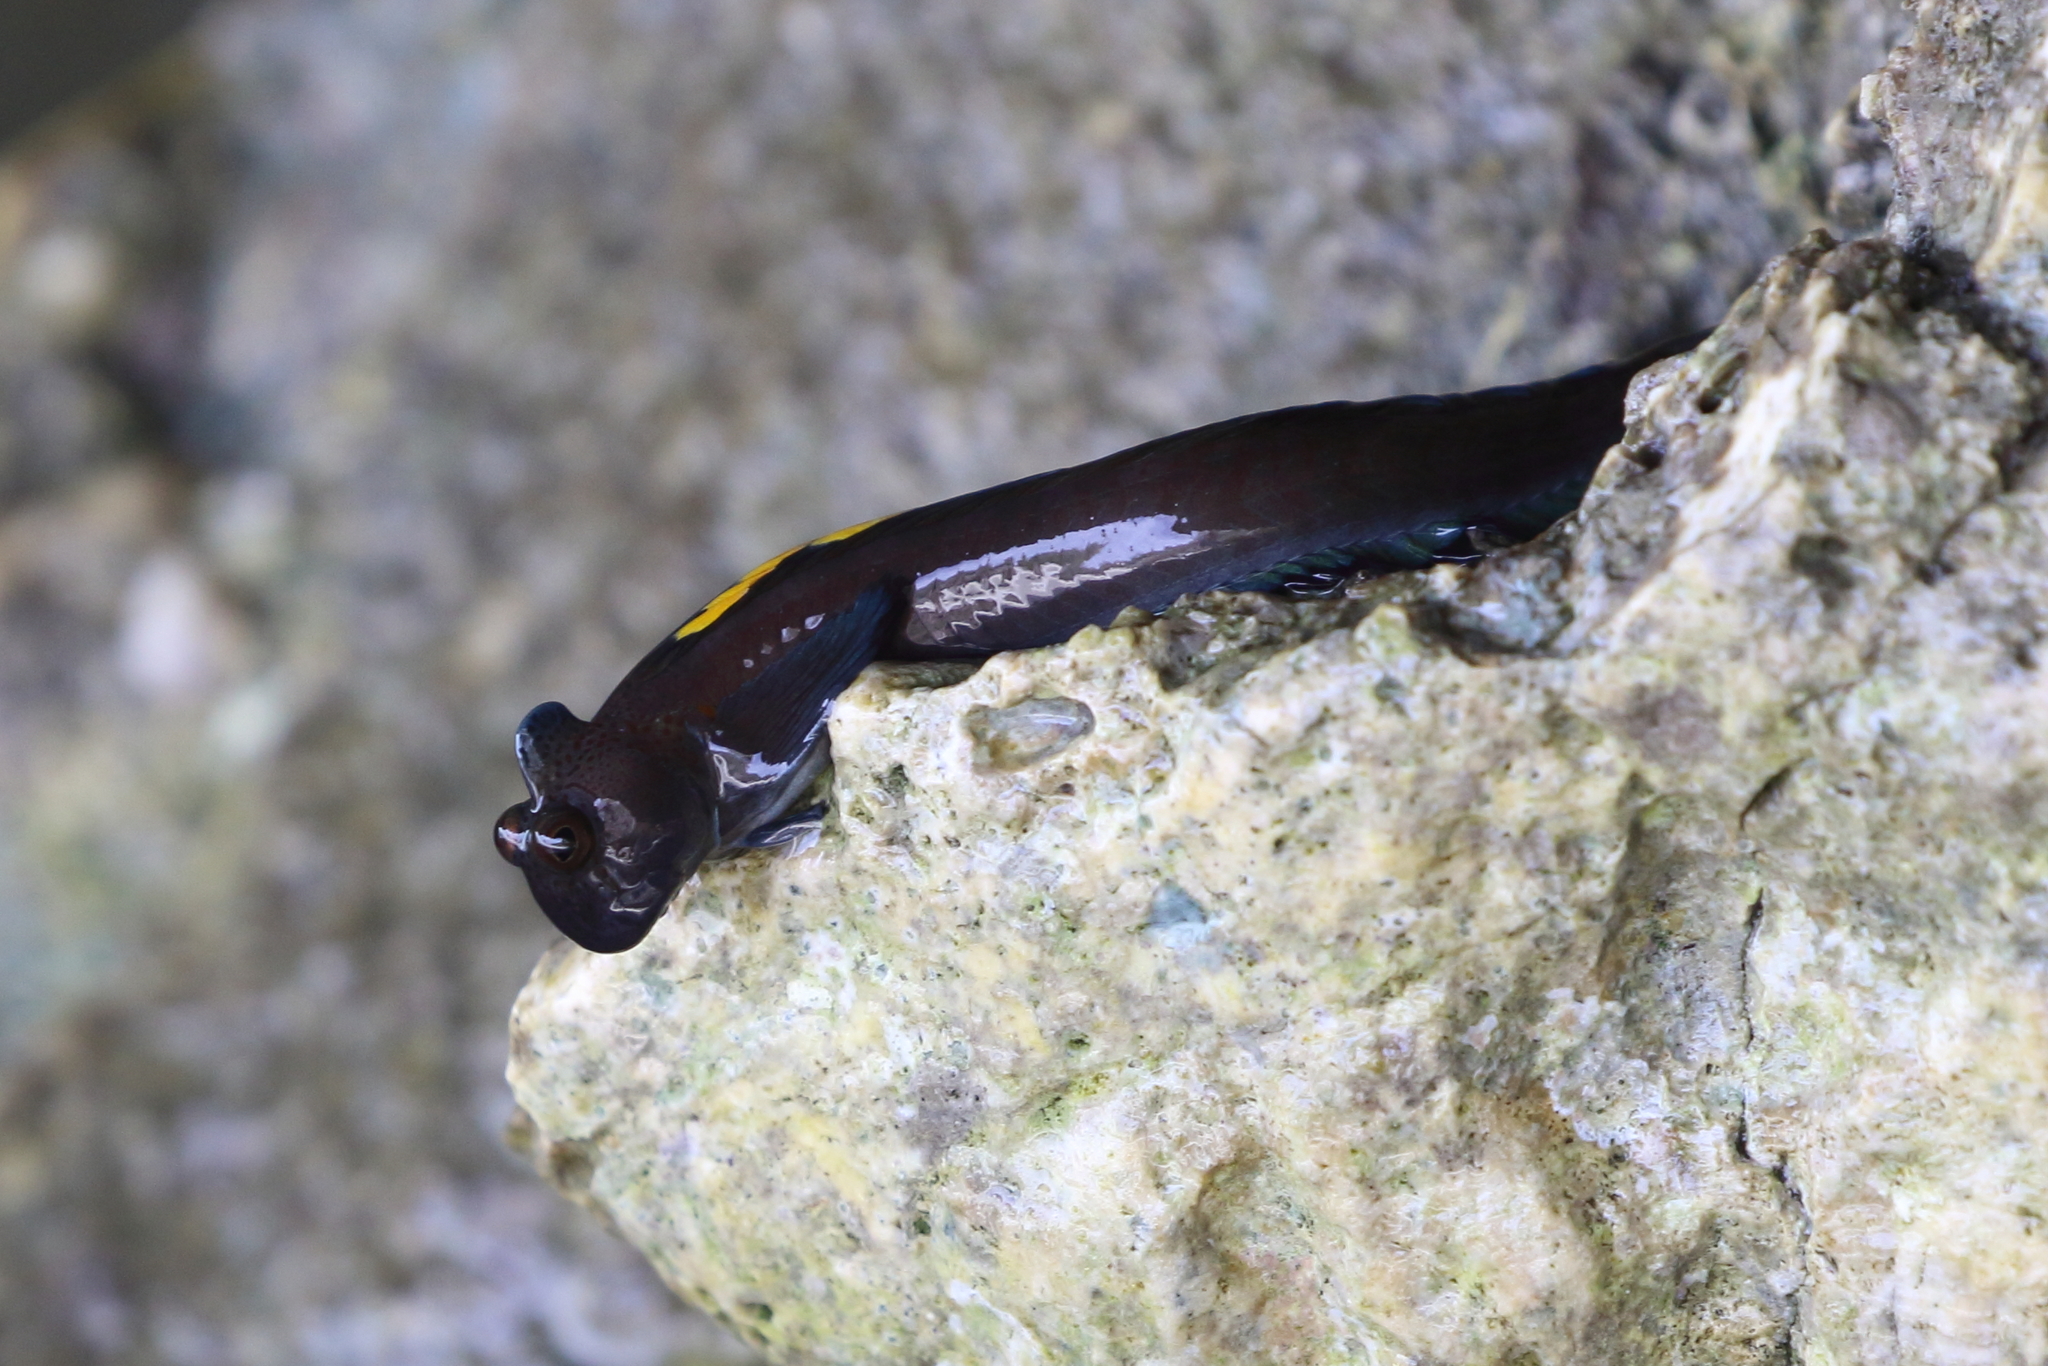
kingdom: Animalia
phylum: Chordata
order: Perciformes
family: Blenniidae
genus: Alticus
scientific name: Alticus sertatus
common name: Garlanded rockskipper
